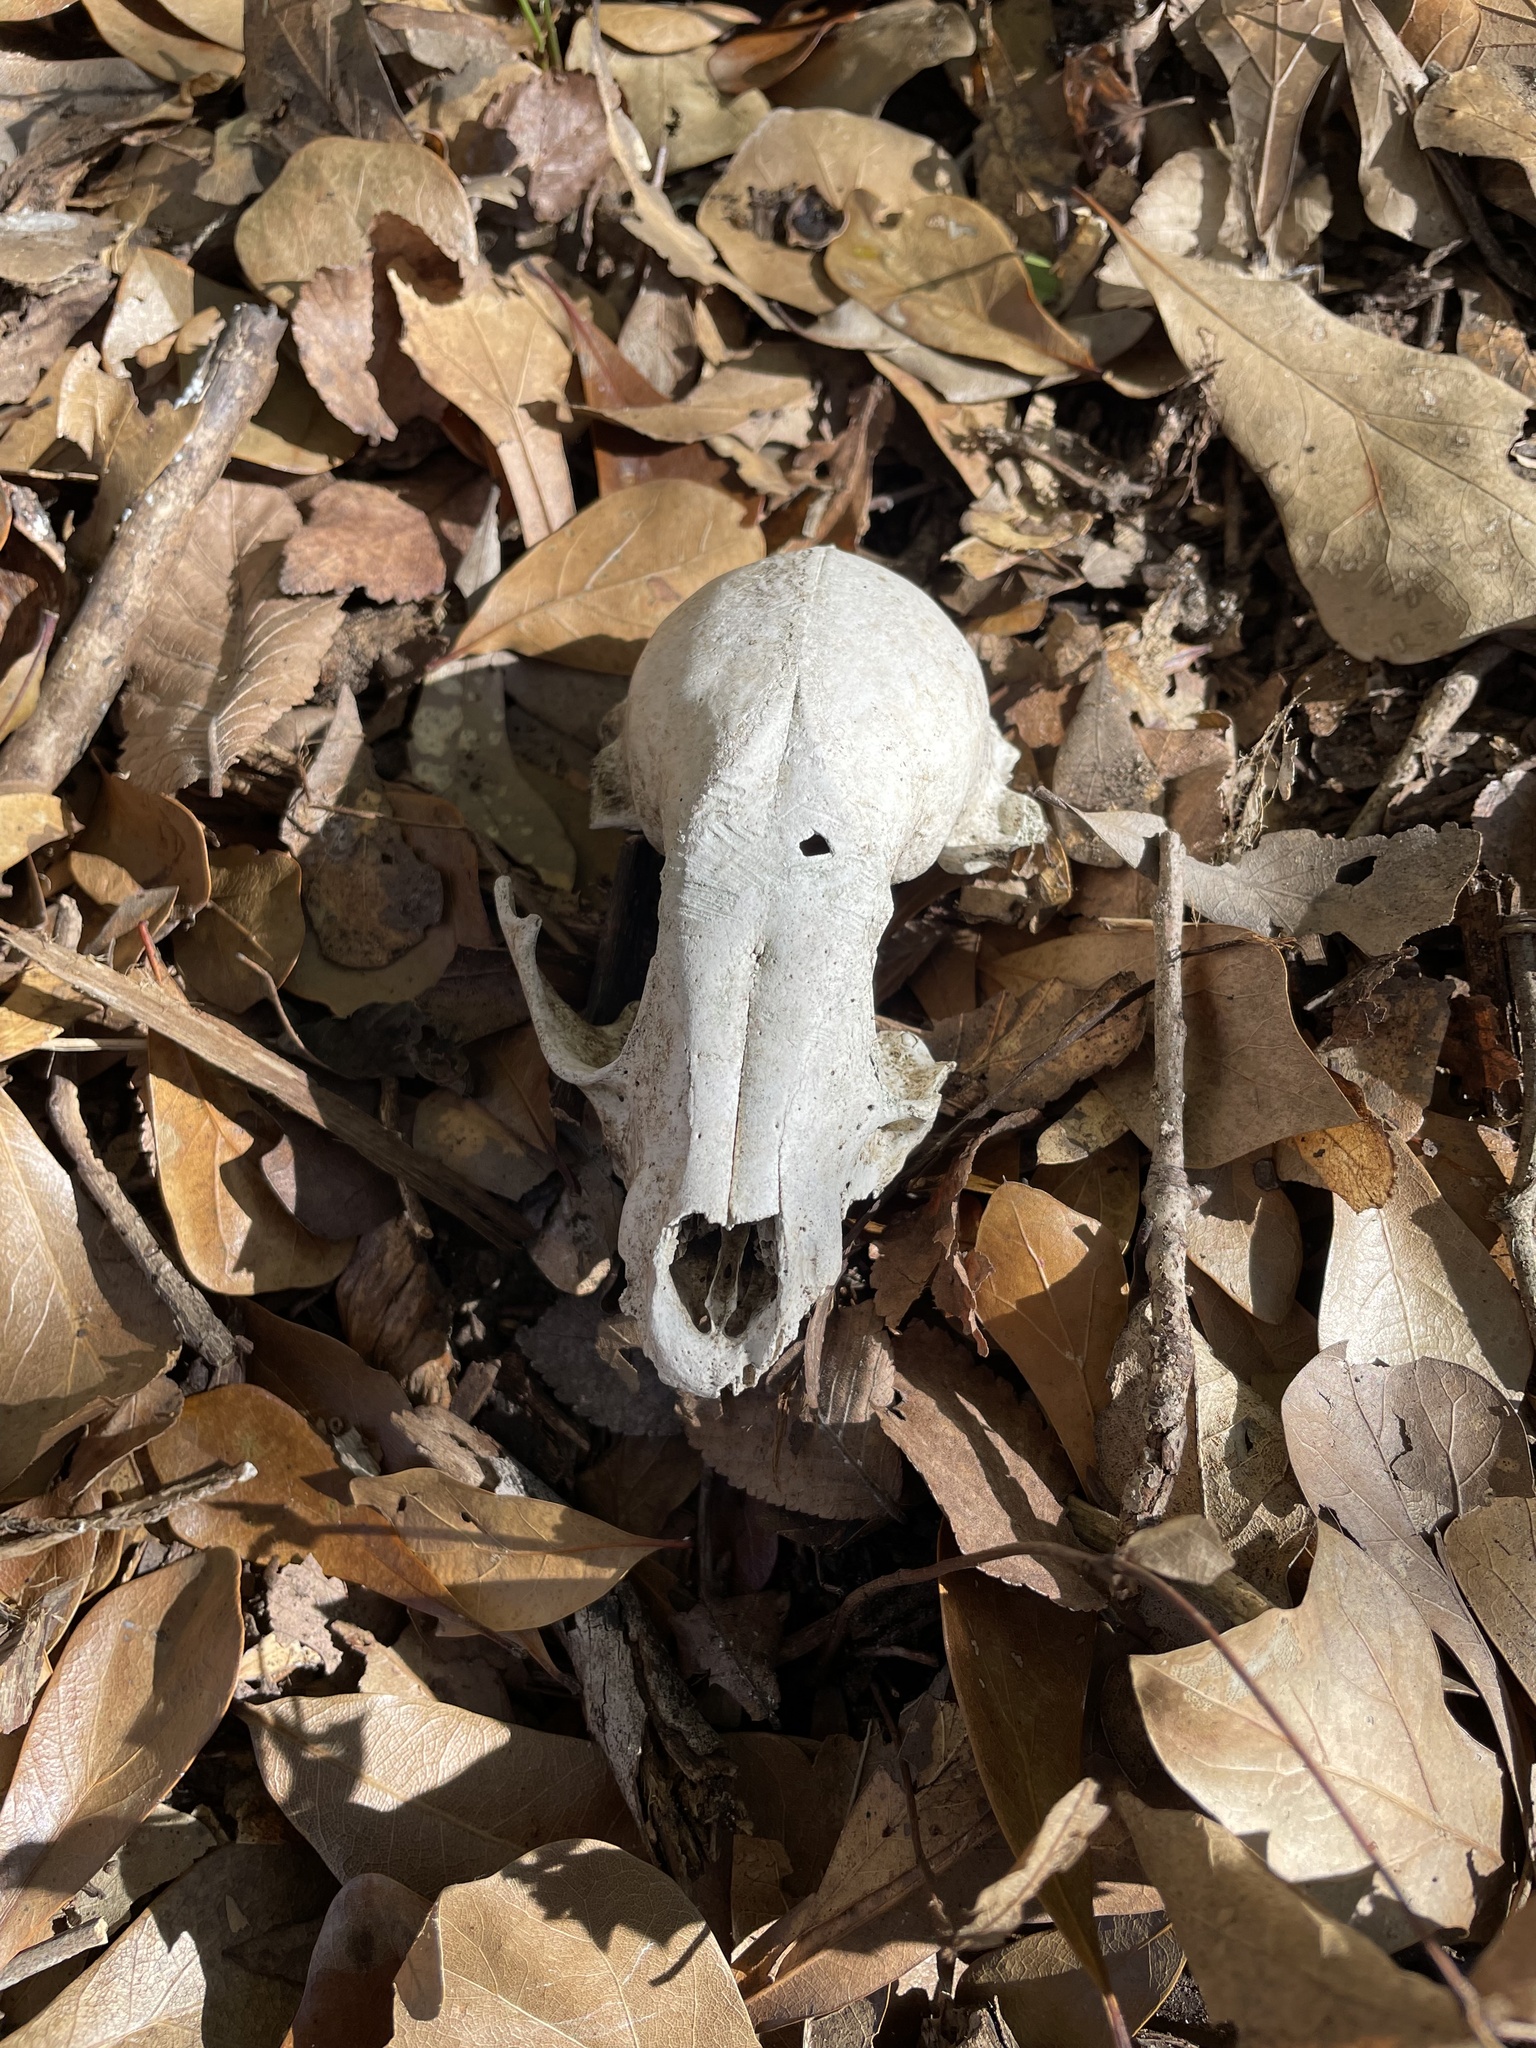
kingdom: Animalia
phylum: Chordata
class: Mammalia
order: Carnivora
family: Procyonidae
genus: Procyon
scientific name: Procyon lotor
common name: Raccoon
